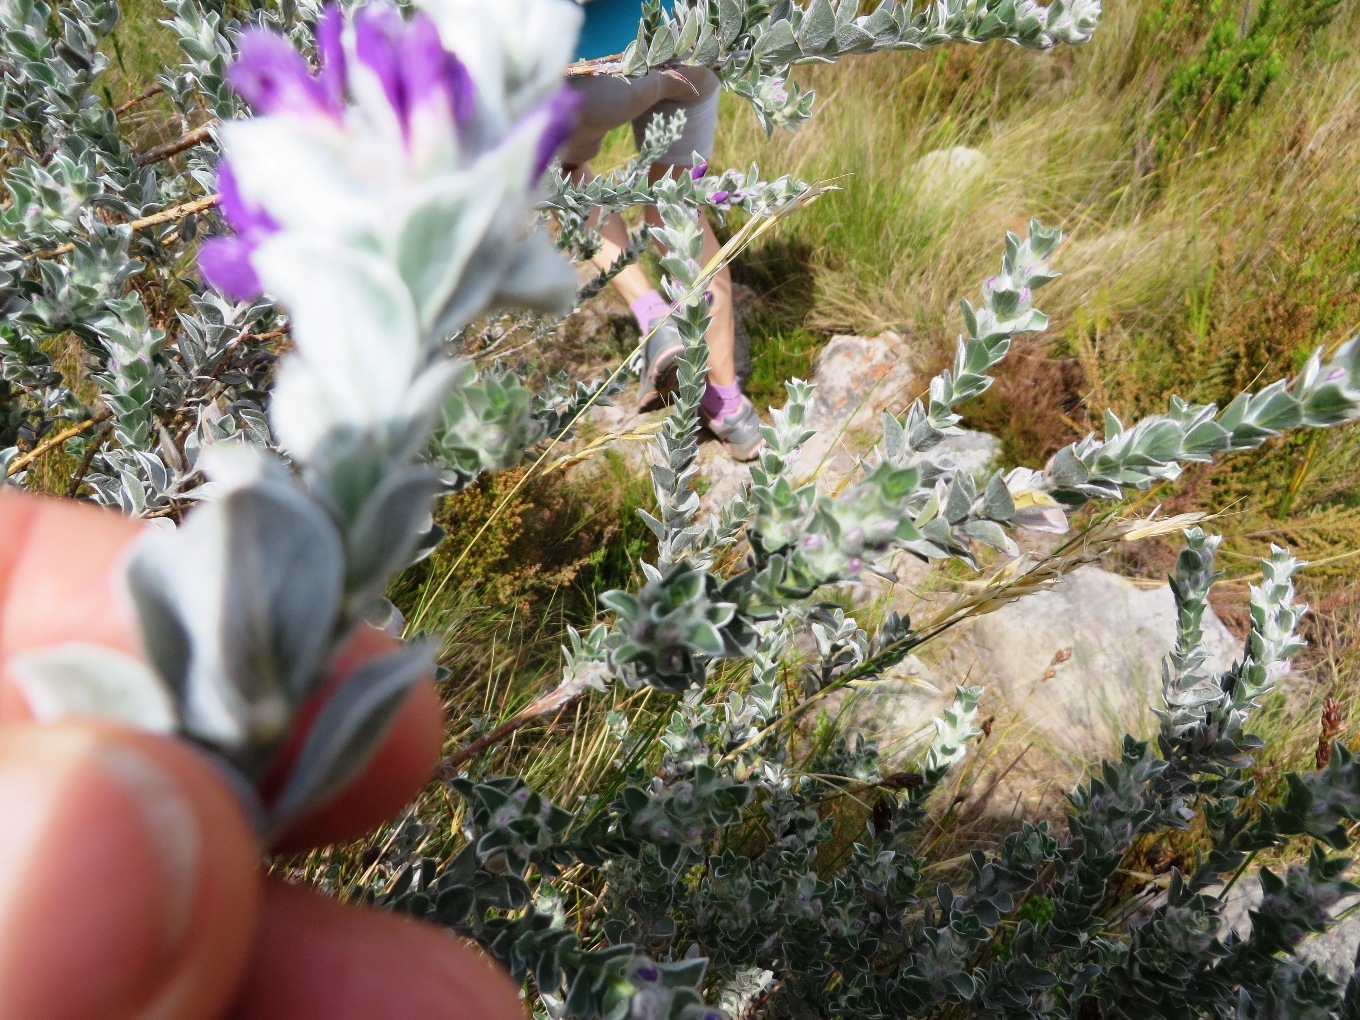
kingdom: Plantae
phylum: Tracheophyta
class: Magnoliopsida
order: Fabales
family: Fabaceae
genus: Amphithalea
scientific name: Amphithalea imbricata
